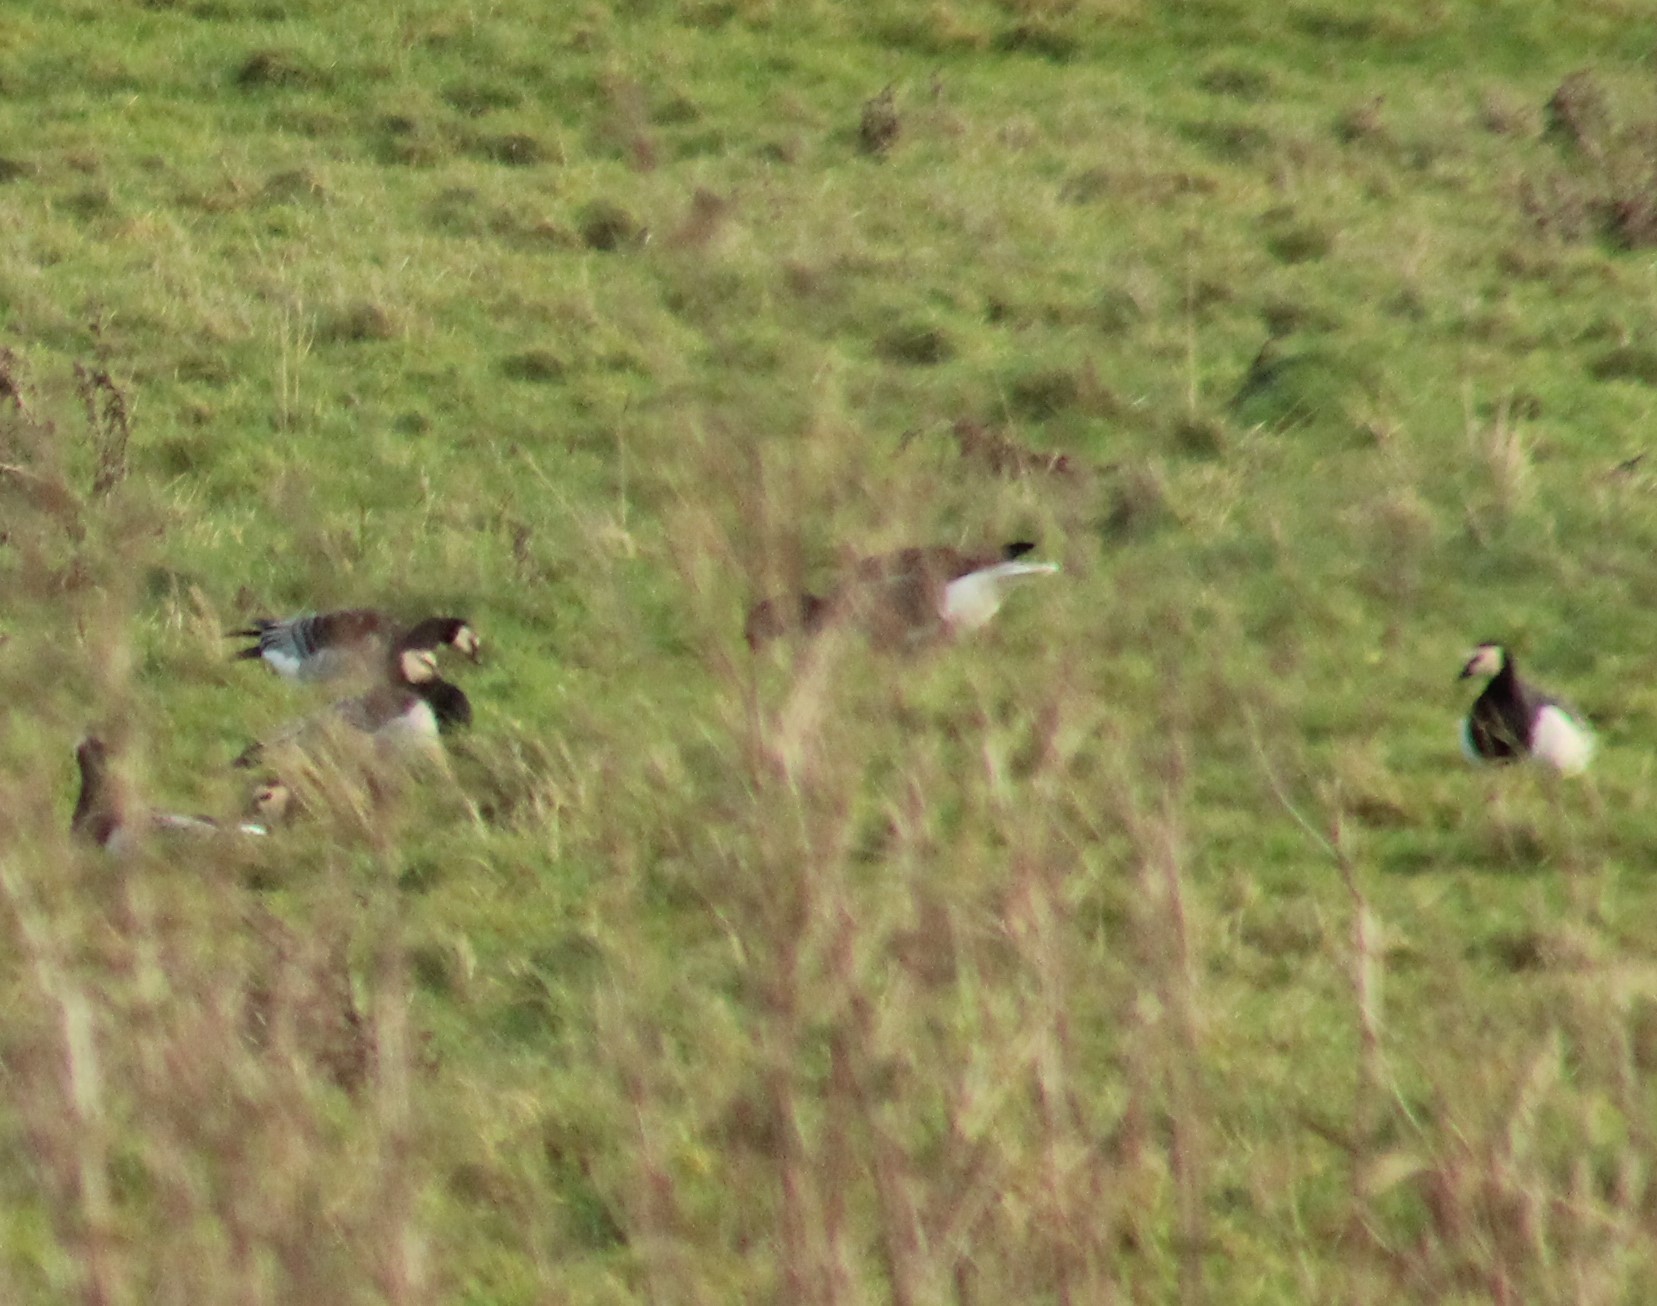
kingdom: Animalia
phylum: Chordata
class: Aves
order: Anseriformes
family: Anatidae
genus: Branta
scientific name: Branta leucopsis
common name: Barnacle goose
